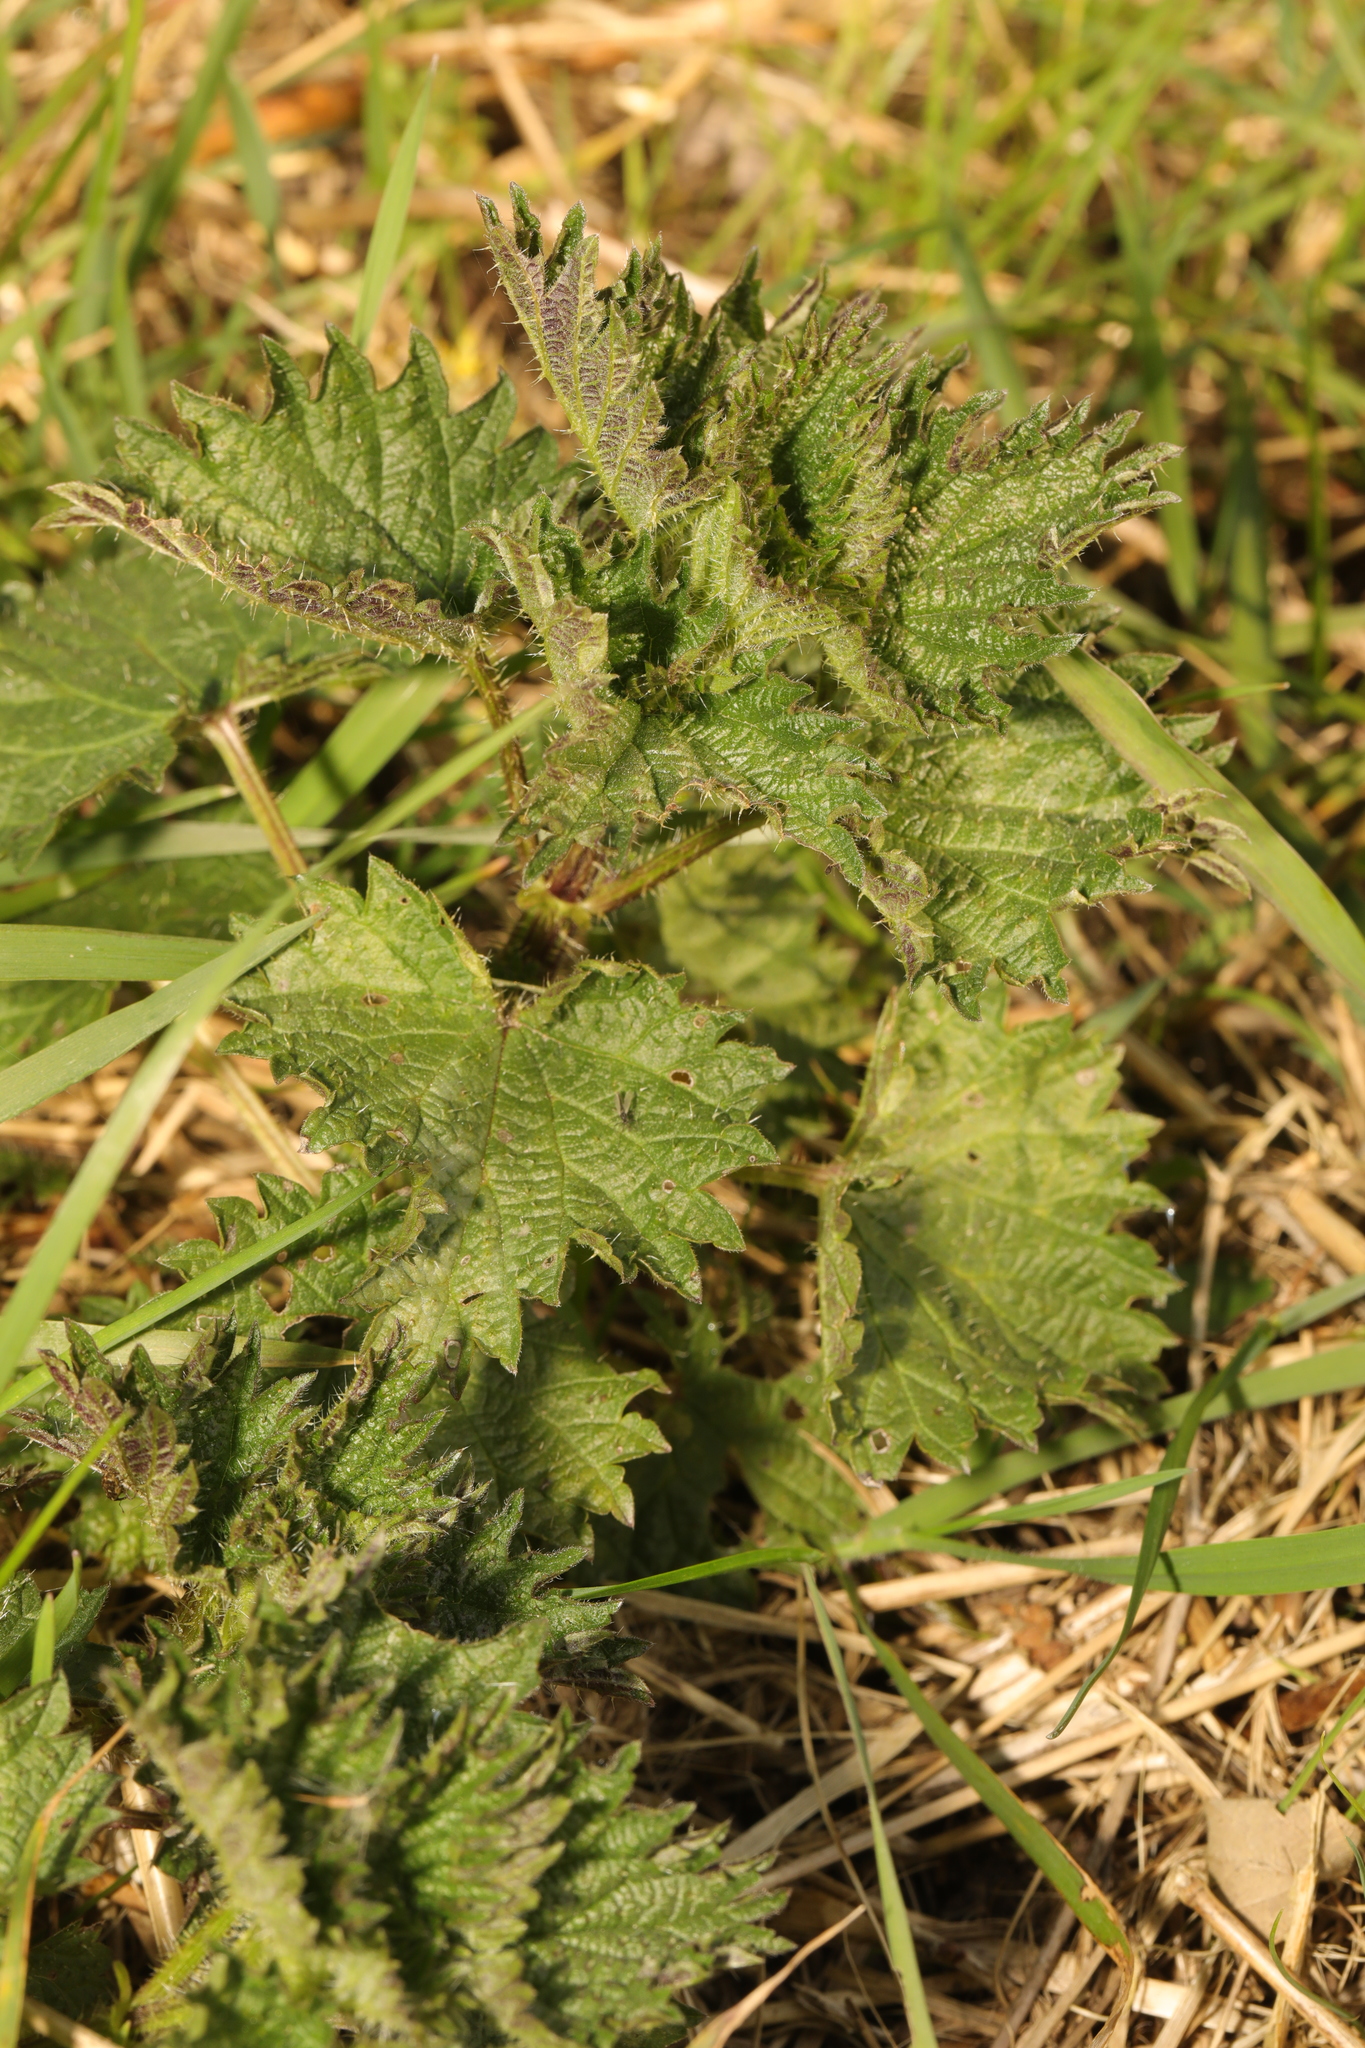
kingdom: Plantae
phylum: Tracheophyta
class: Magnoliopsida
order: Rosales
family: Urticaceae
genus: Urtica
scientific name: Urtica dioica
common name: Common nettle
